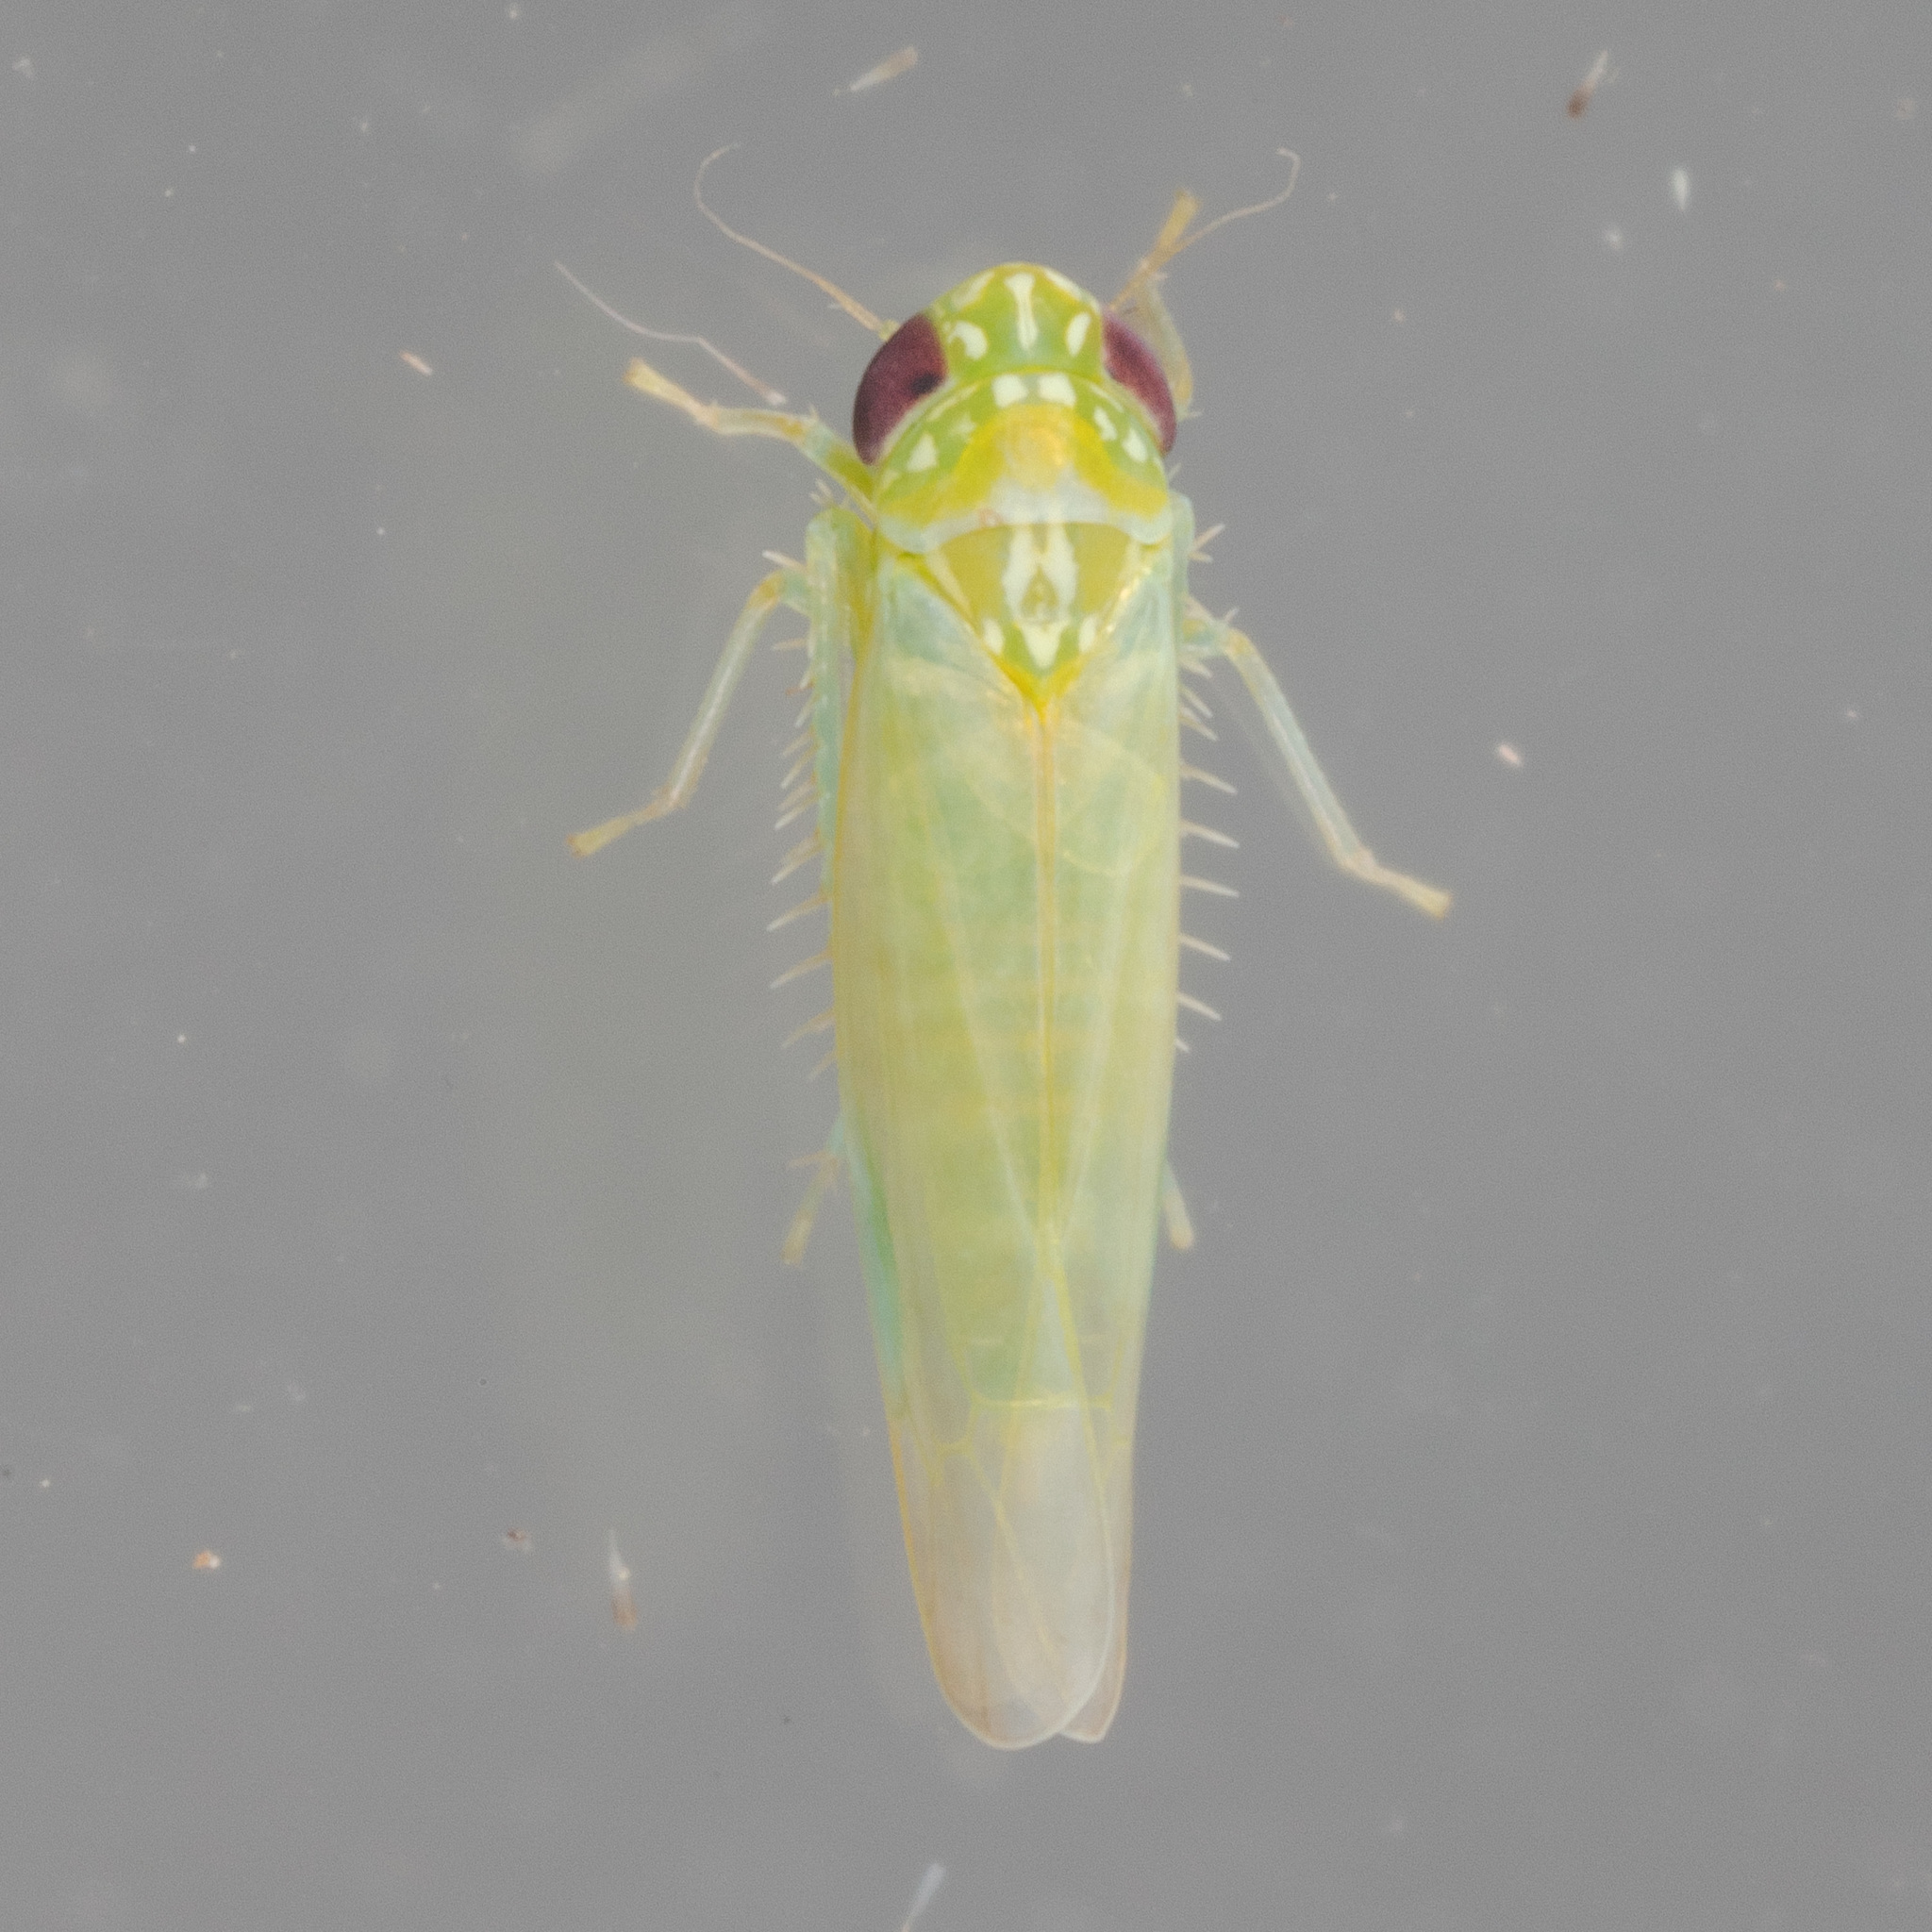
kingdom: Animalia
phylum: Arthropoda
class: Insecta
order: Hemiptera
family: Cicadellidae
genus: Empoasca
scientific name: Empoasca fabae
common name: Potato leafhopper
